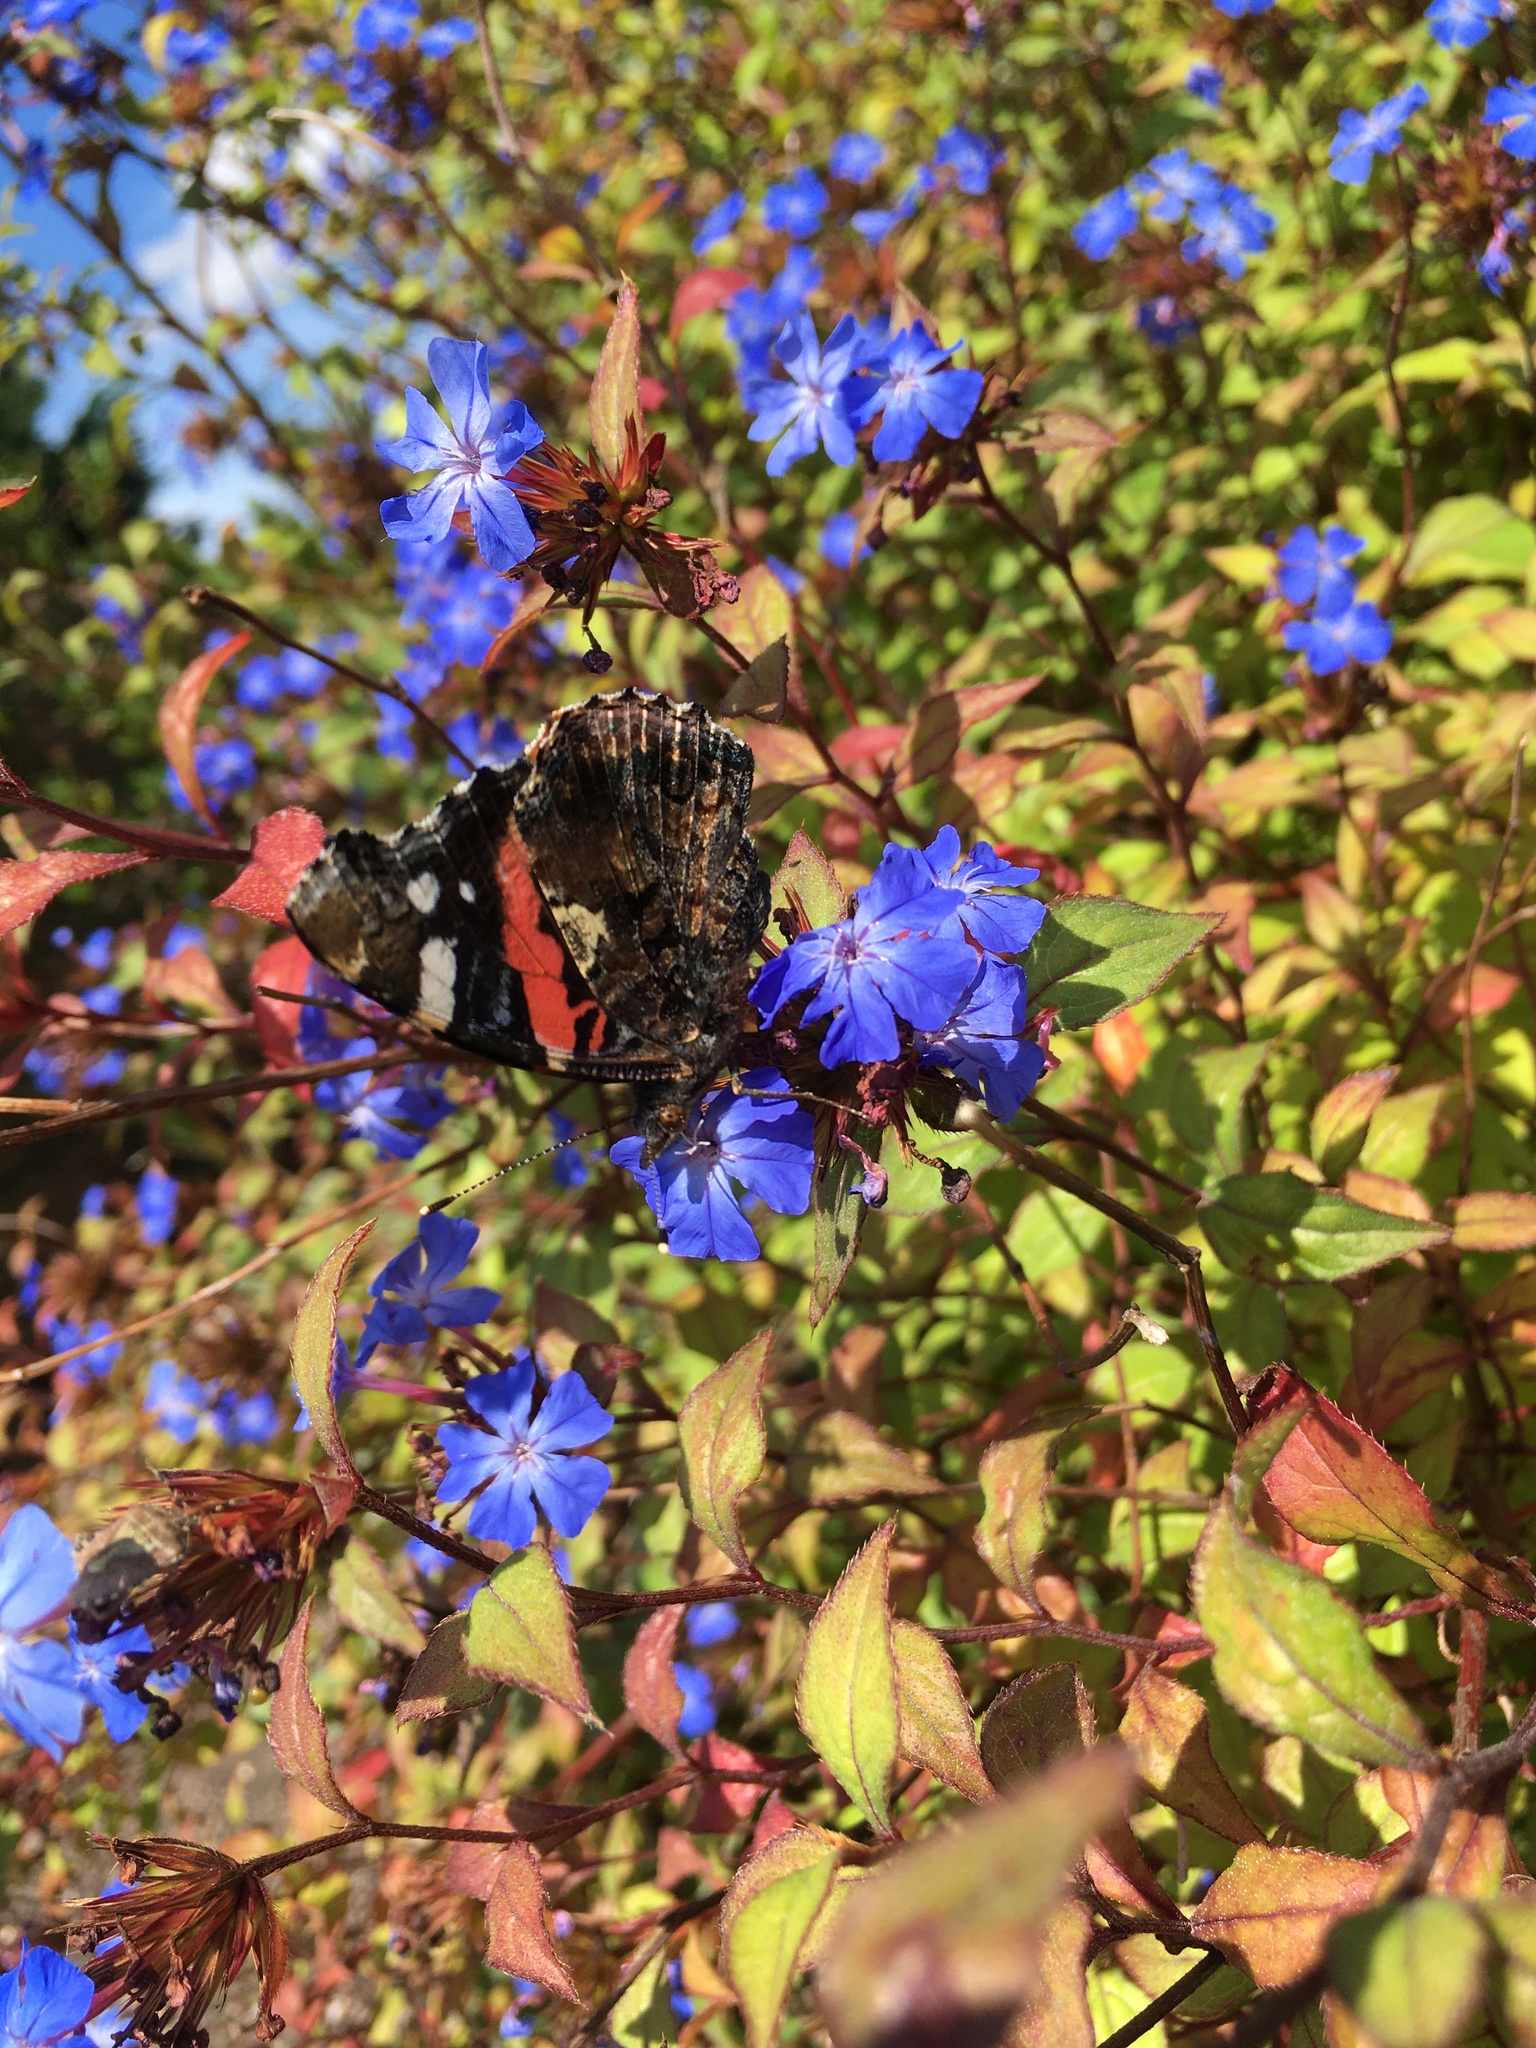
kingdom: Animalia
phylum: Arthropoda
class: Insecta
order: Lepidoptera
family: Nymphalidae
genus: Vanessa
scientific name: Vanessa atalanta
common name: Red admiral
